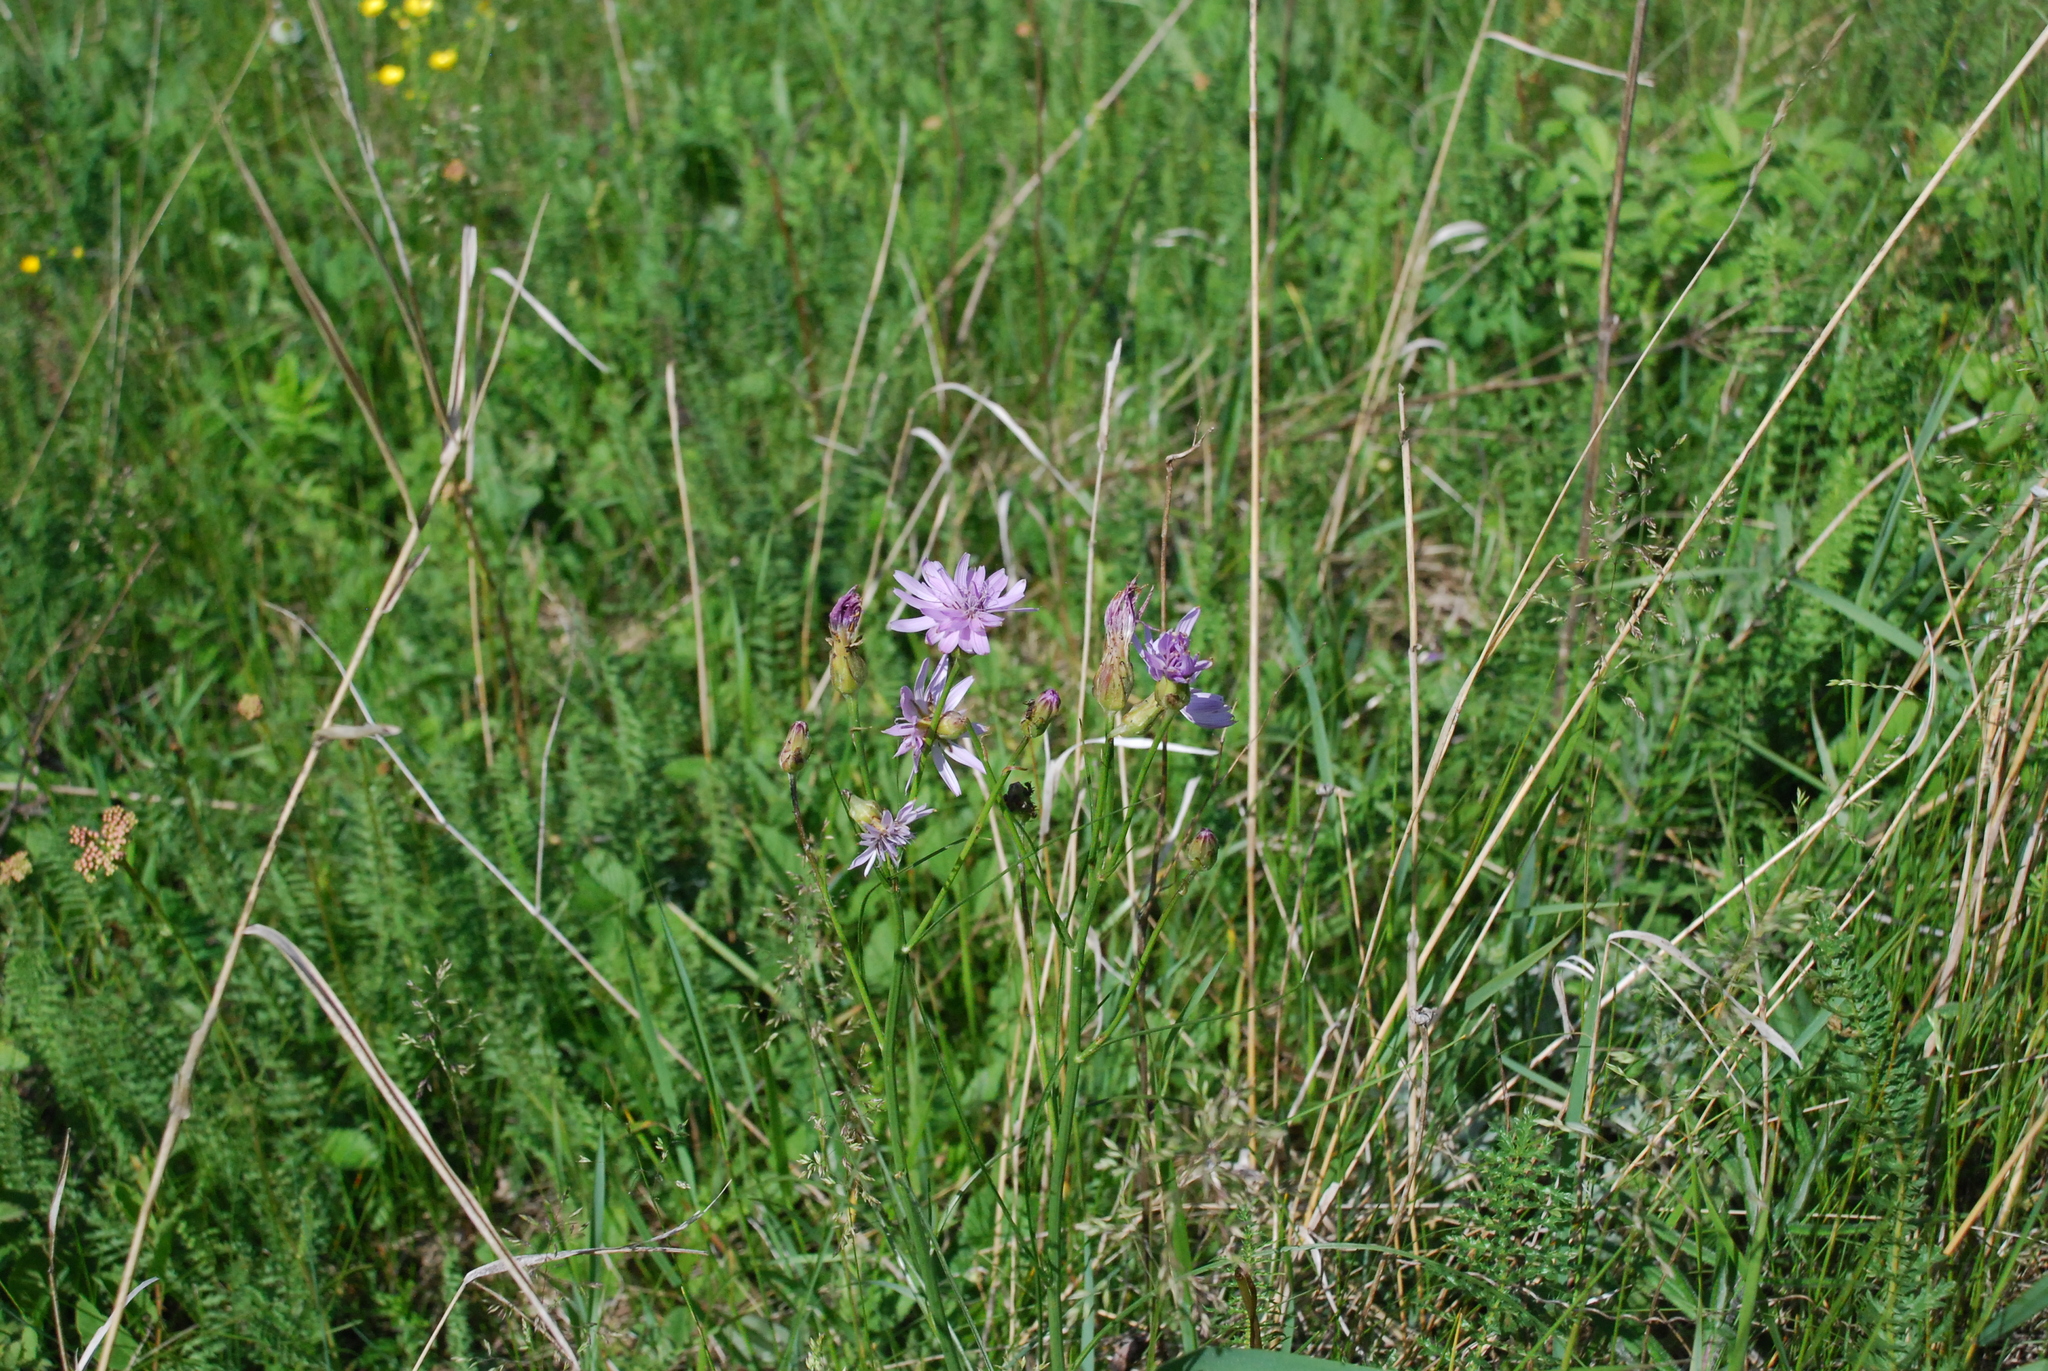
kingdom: Plantae
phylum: Tracheophyta
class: Magnoliopsida
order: Asterales
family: Asteraceae
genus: Scorzonera
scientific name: Scorzonera purpurea
